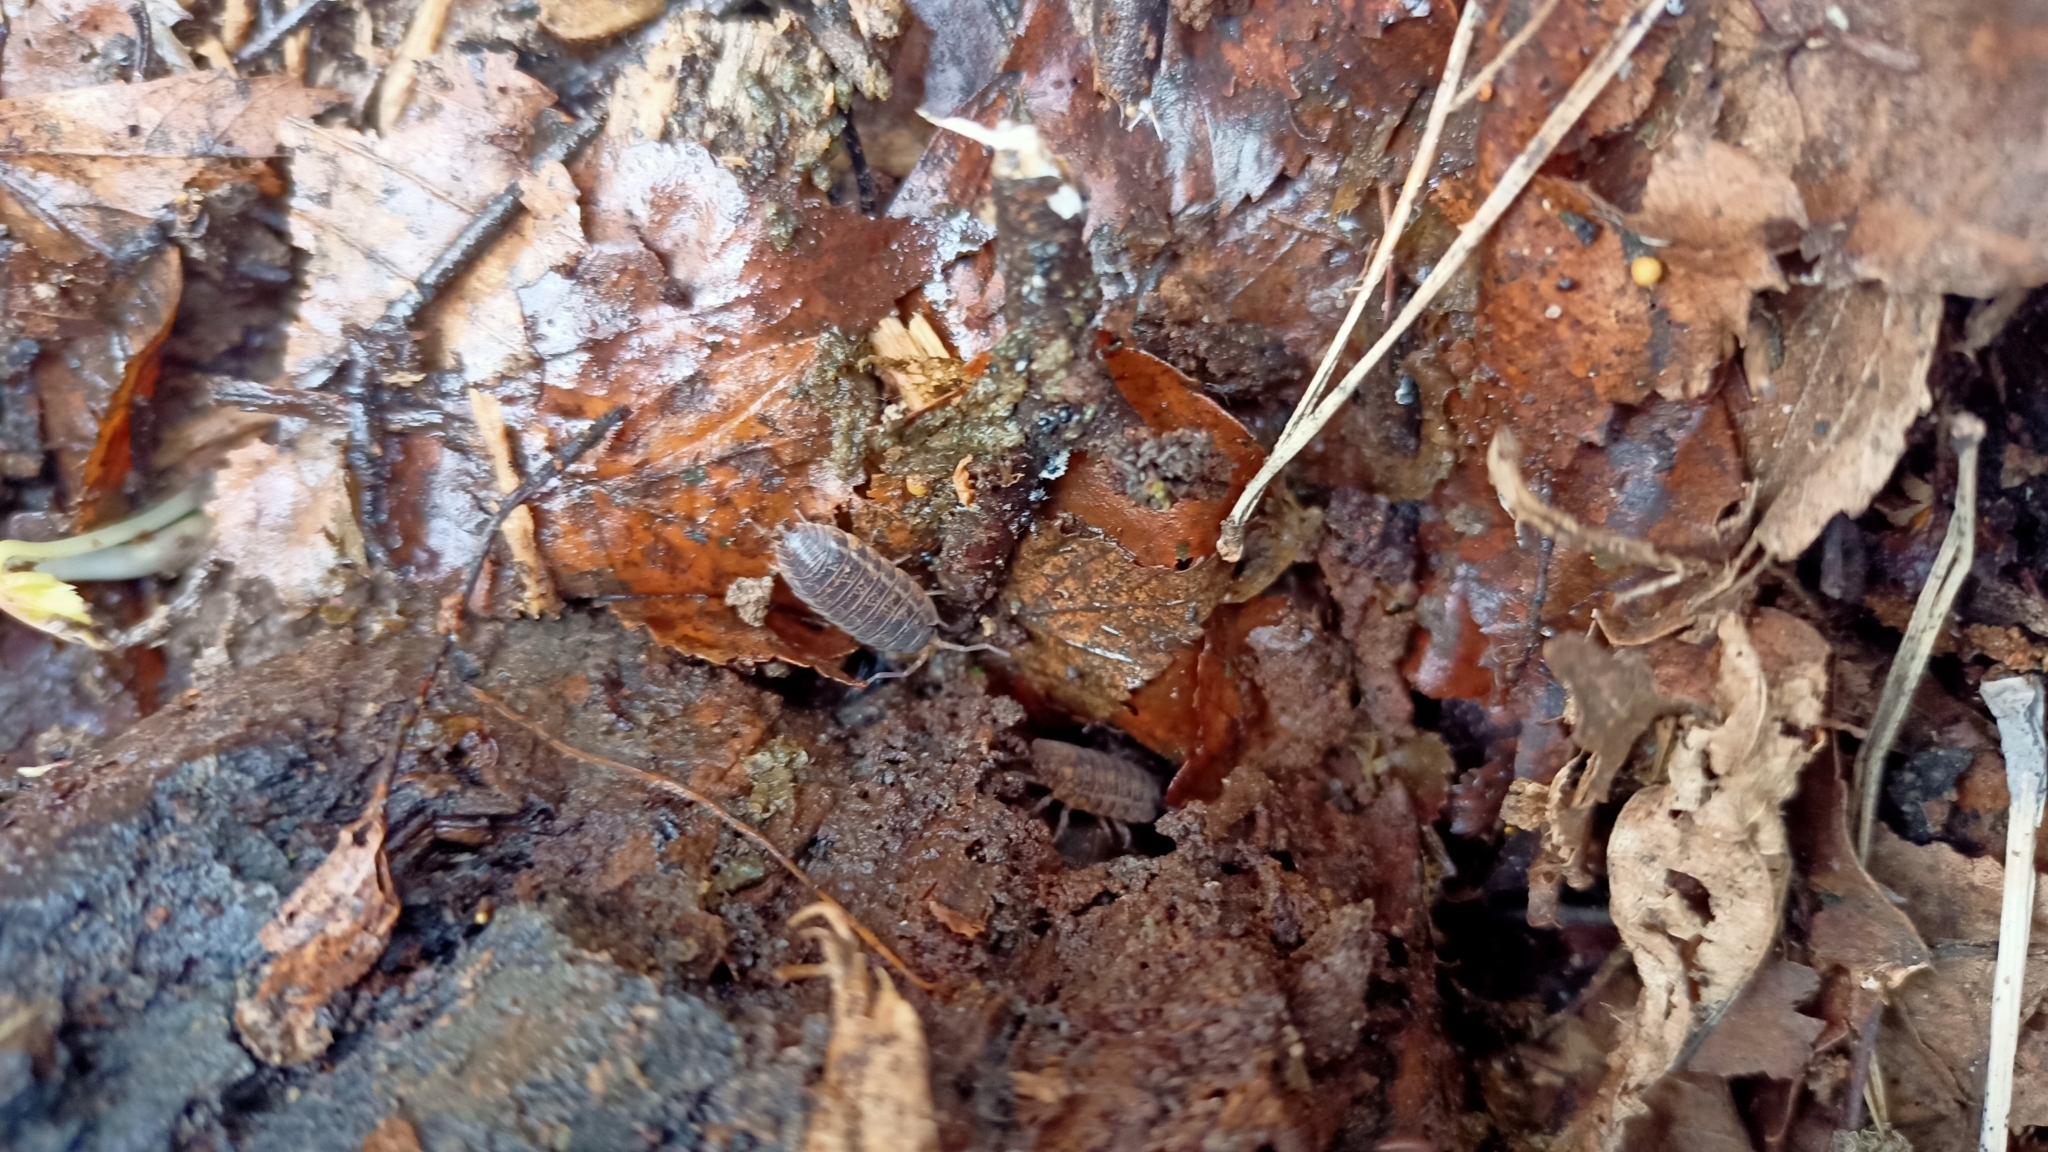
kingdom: Animalia
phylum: Arthropoda
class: Malacostraca
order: Isopoda
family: Trachelipodidae
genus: Trachelipus
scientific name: Trachelipus rathkii
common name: Isopod
